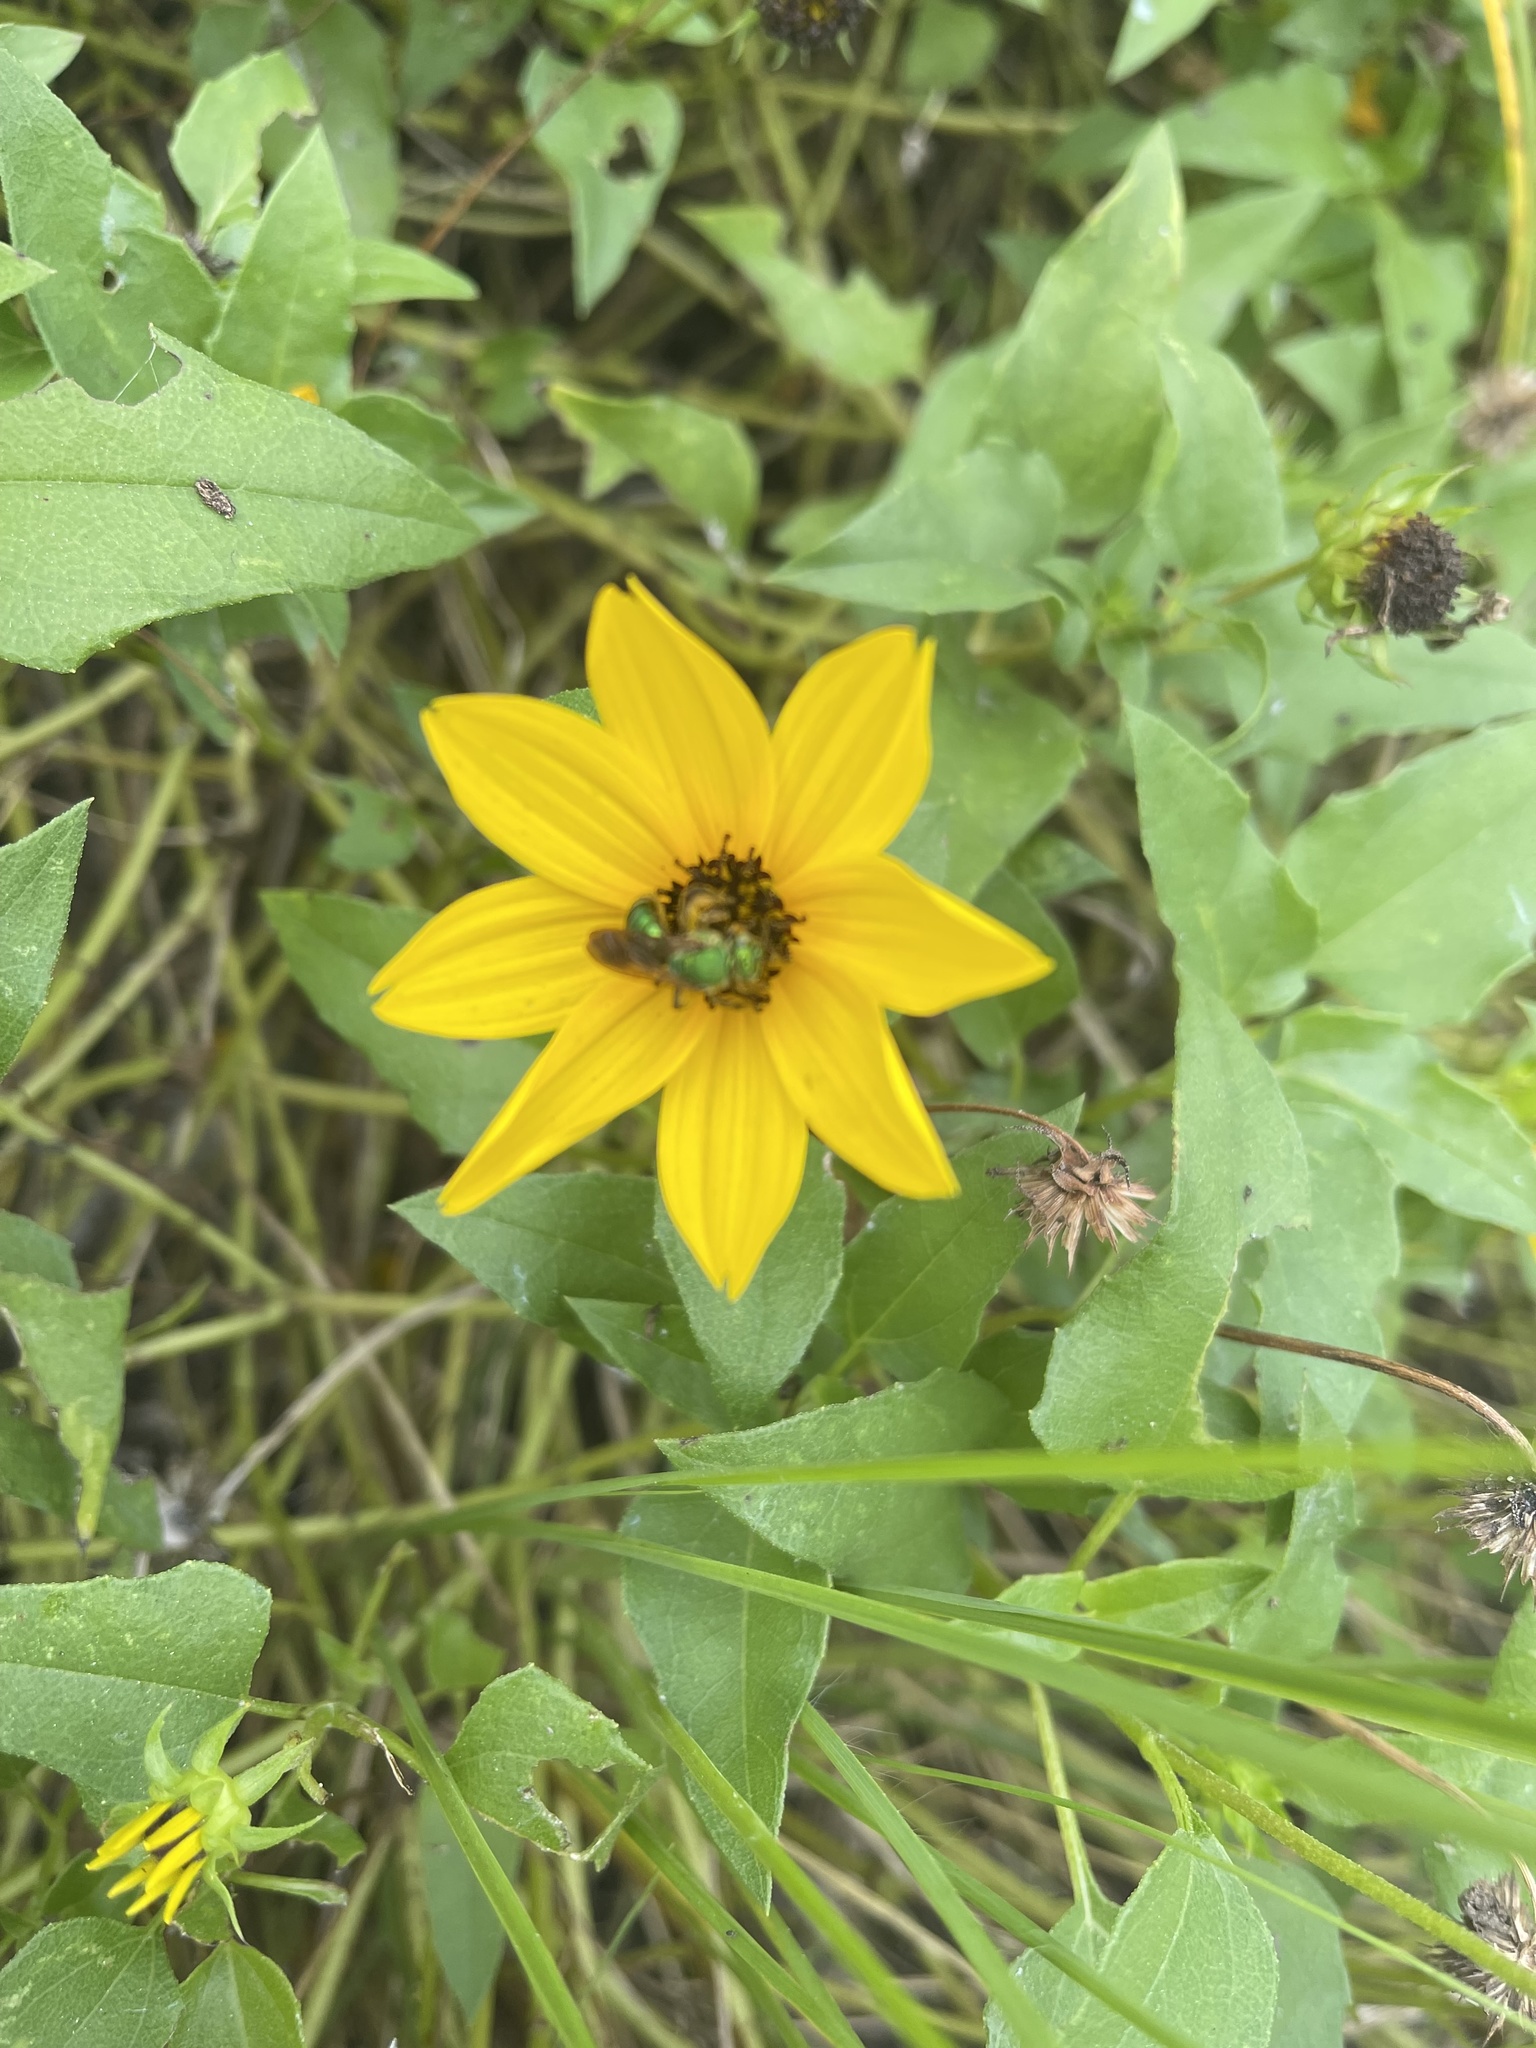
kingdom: Animalia
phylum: Arthropoda
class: Insecta
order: Hymenoptera
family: Halictidae
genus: Agapostemon
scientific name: Agapostemon splendens
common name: Brown-winged striped sweat bee
